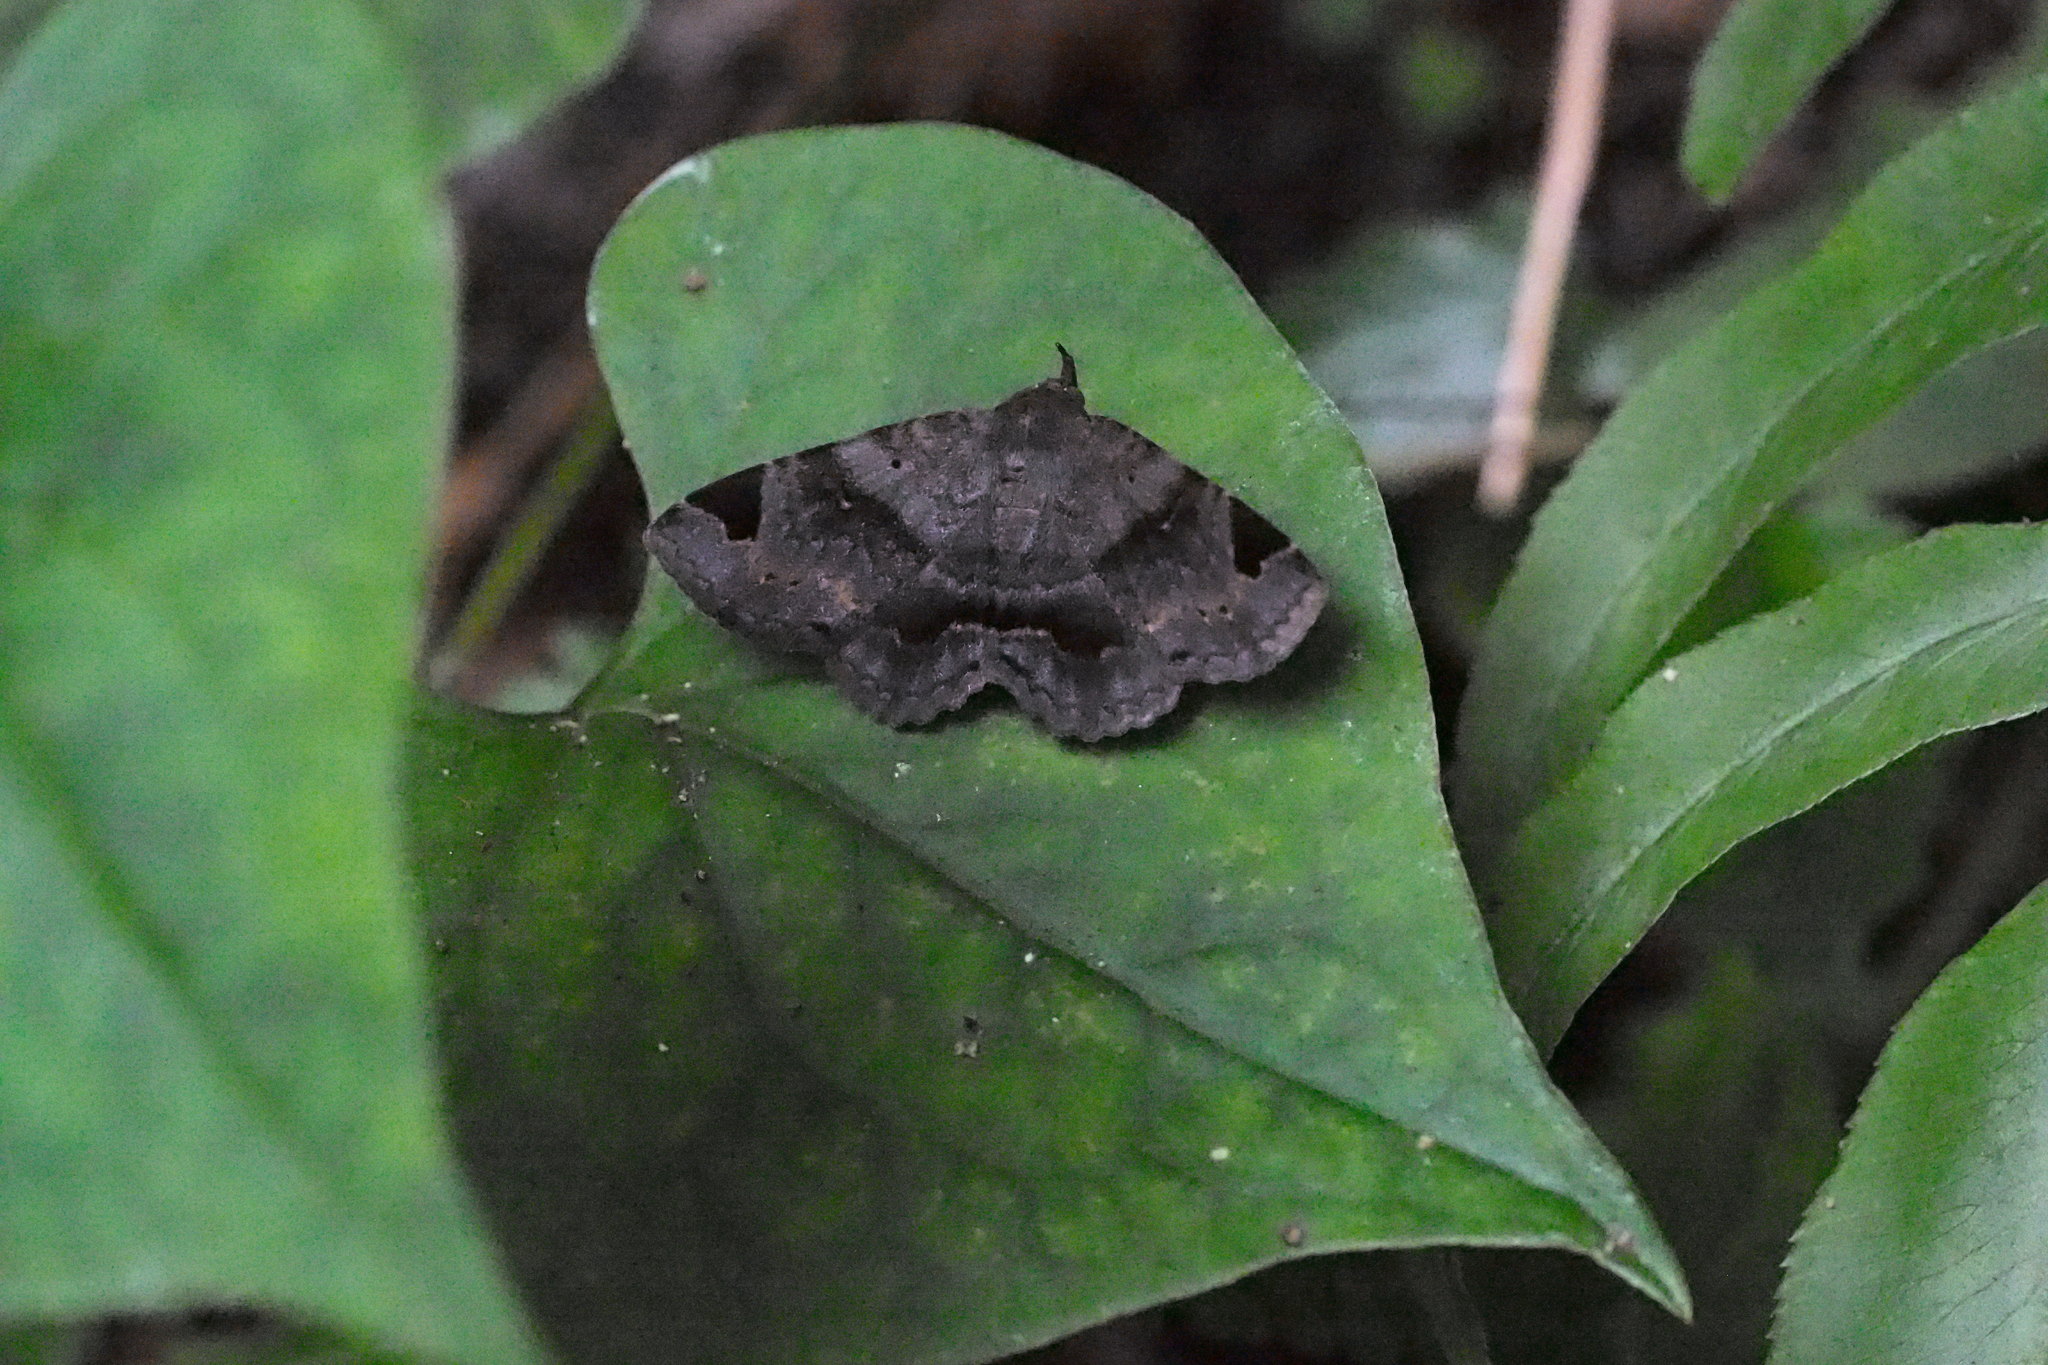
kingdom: Animalia
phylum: Arthropoda
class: Insecta
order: Lepidoptera
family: Erebidae
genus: Mecodina
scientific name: Mecodina cineracea
